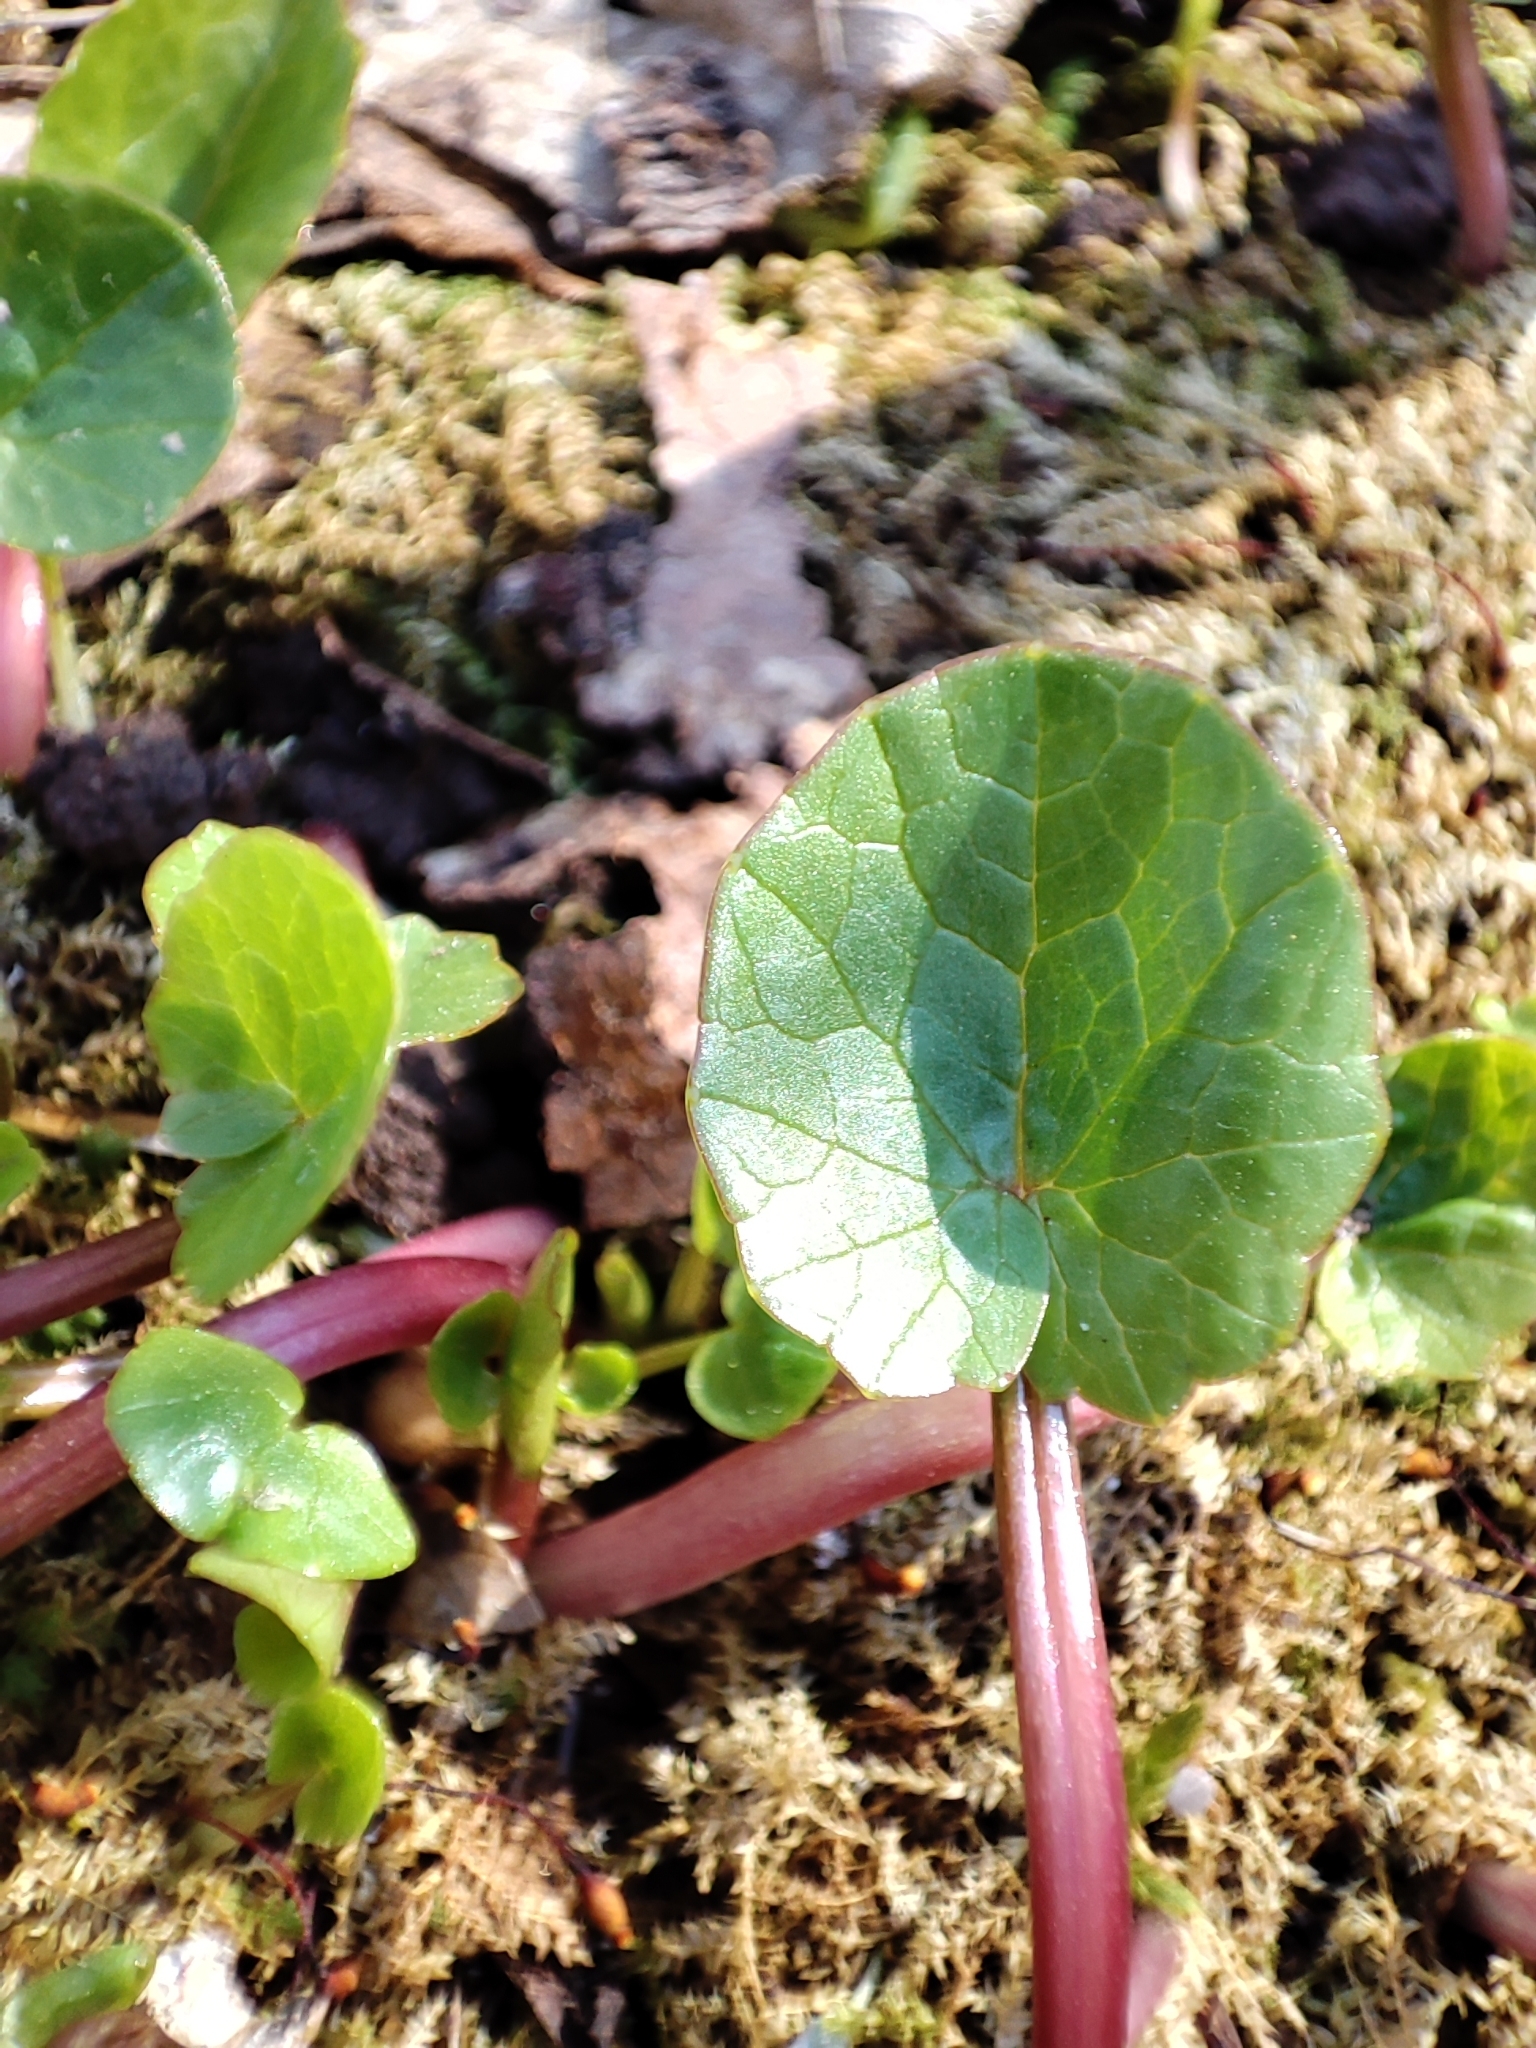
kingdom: Plantae
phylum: Tracheophyta
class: Magnoliopsida
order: Ranunculales
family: Ranunculaceae
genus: Ficaria
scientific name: Ficaria verna
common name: Lesser celandine
